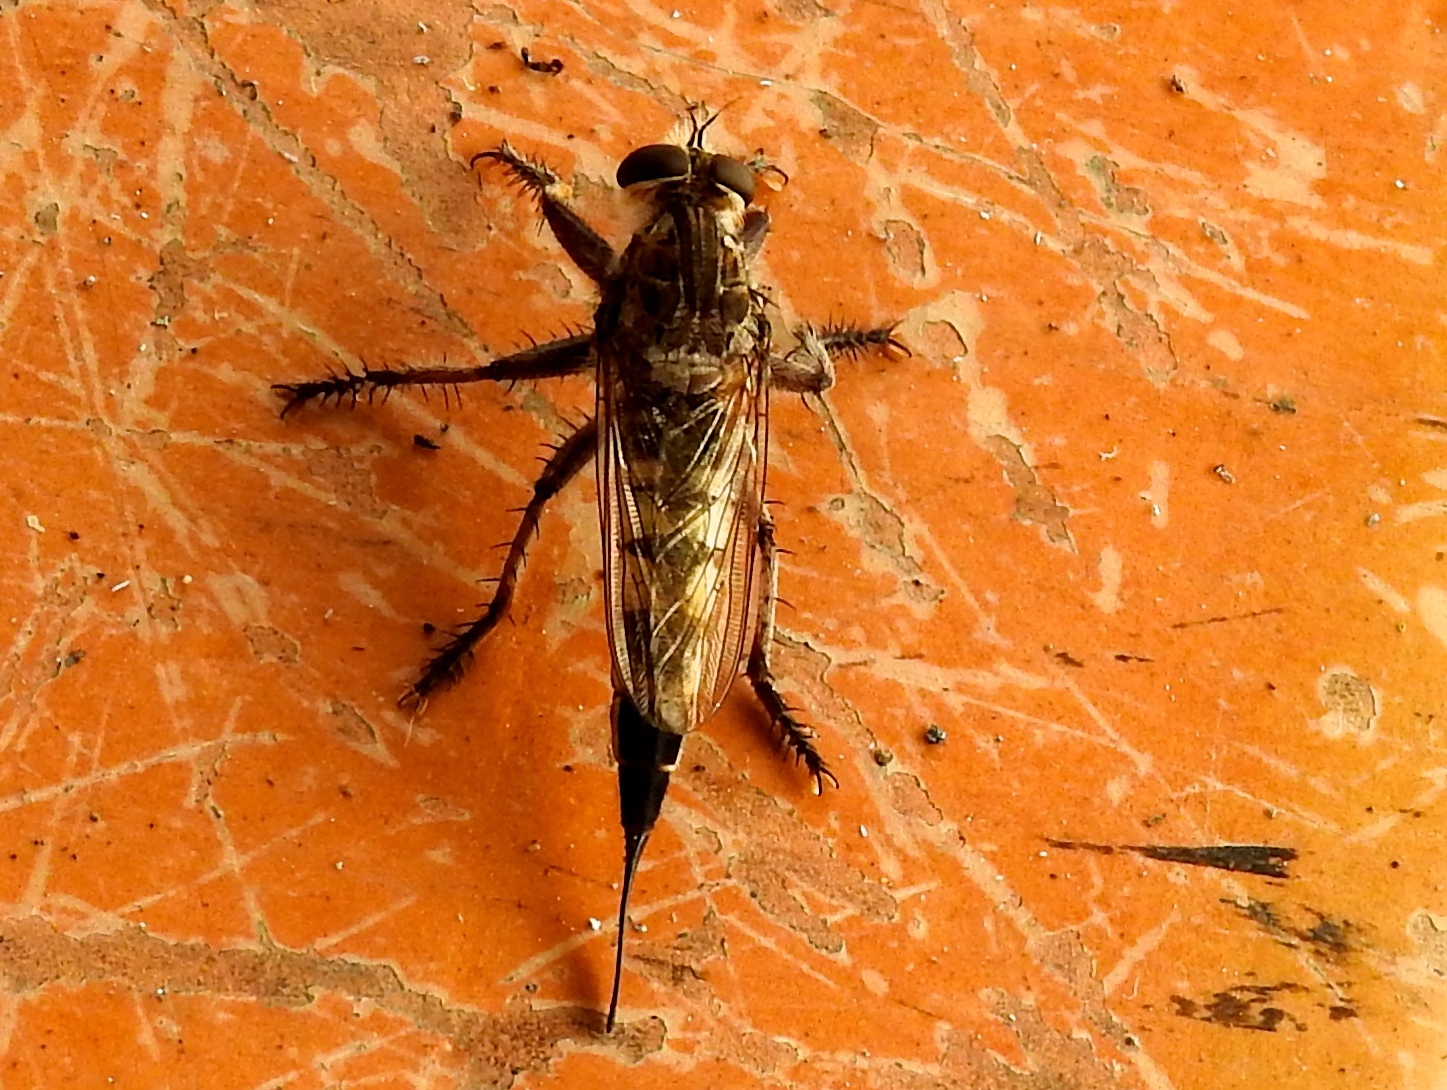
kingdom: Animalia
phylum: Arthropoda
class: Insecta
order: Diptera
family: Asilidae
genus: Efferia
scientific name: Efferia
